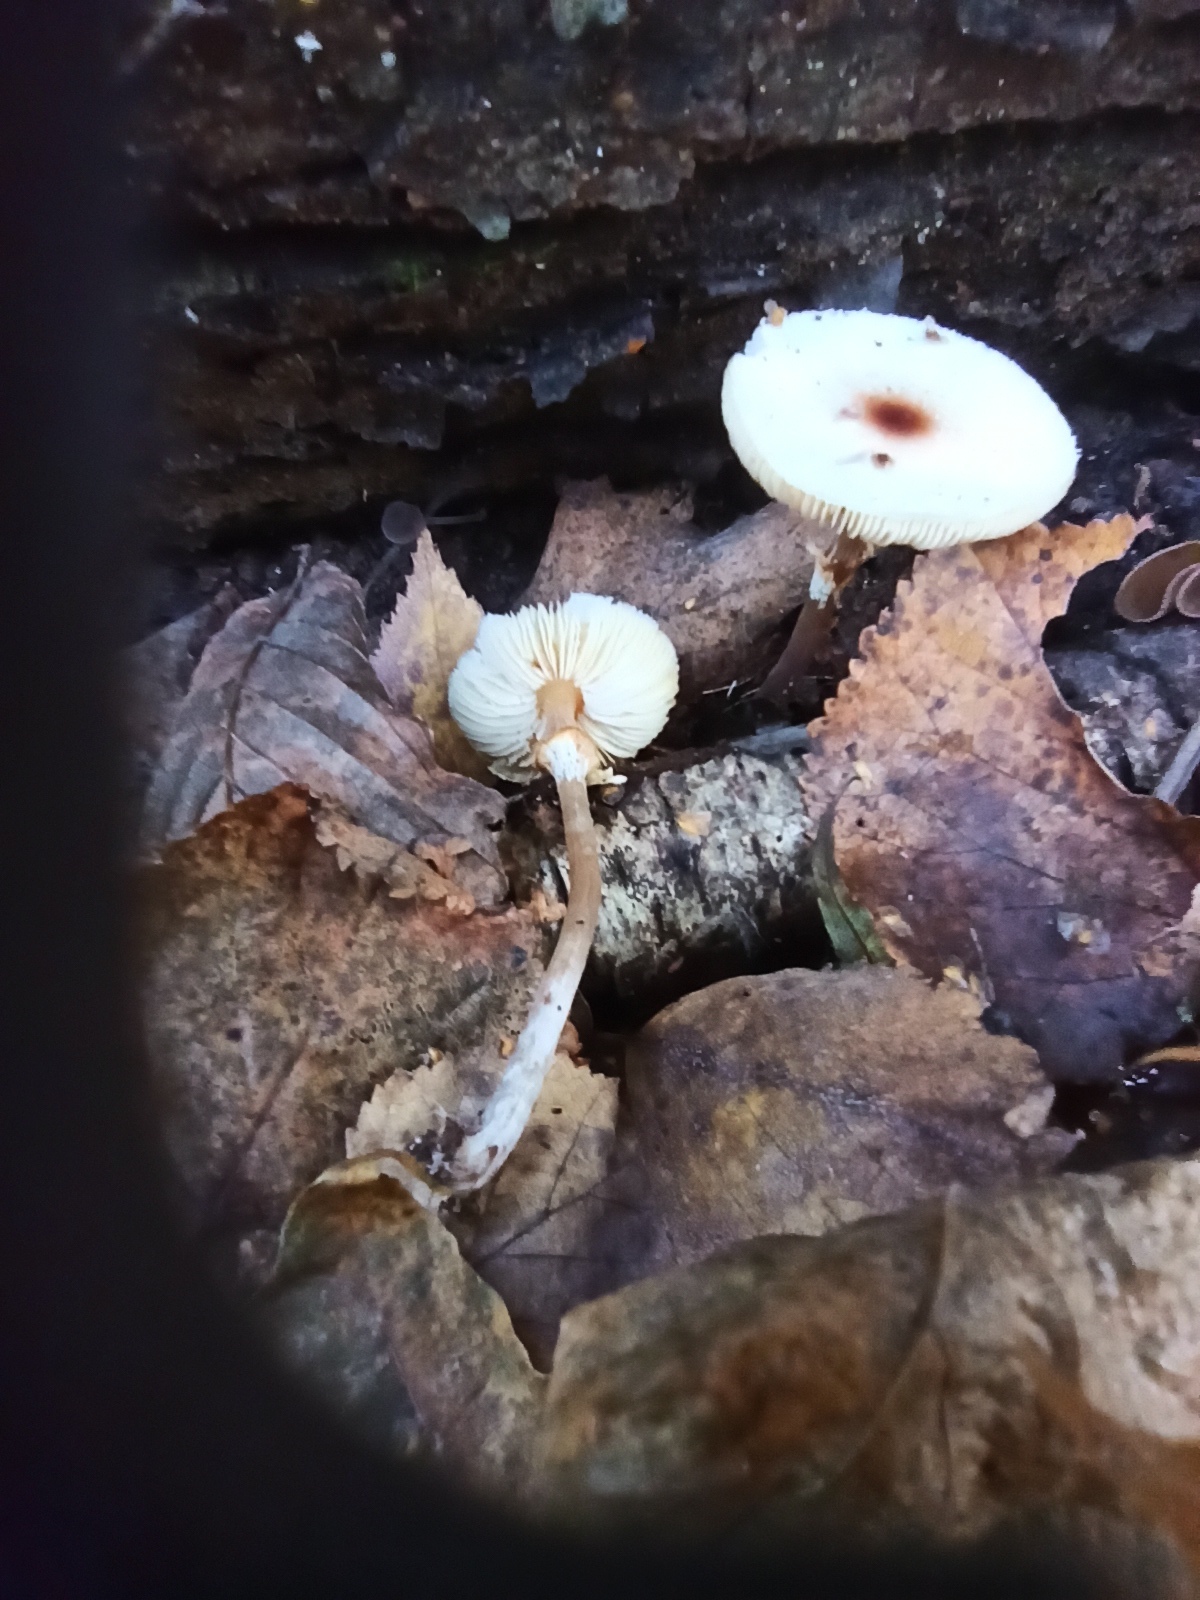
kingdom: Fungi
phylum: Basidiomycota
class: Agaricomycetes
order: Agaricales
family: Agaricaceae
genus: Lepiota
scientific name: Lepiota cristata
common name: Stinking dapperling
